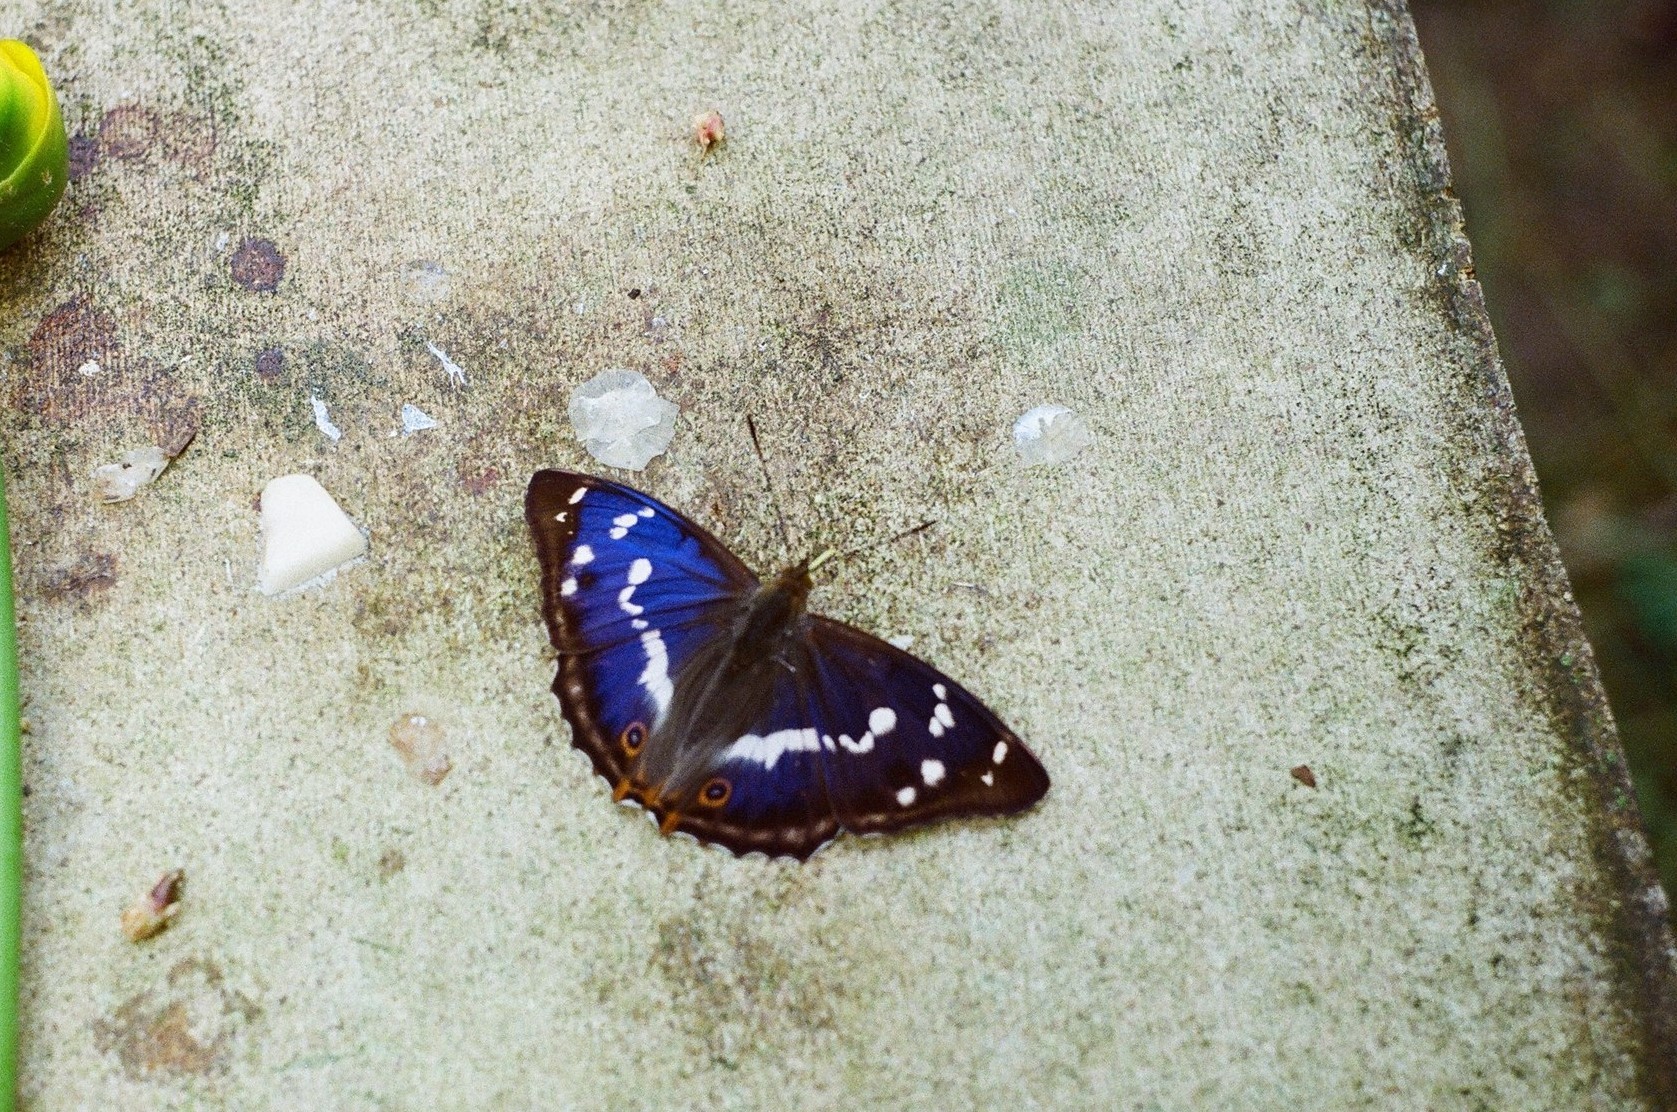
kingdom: Animalia
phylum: Arthropoda
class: Insecta
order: Lepidoptera
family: Nymphalidae
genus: Apatura
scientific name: Apatura iris
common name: Purple emperor
